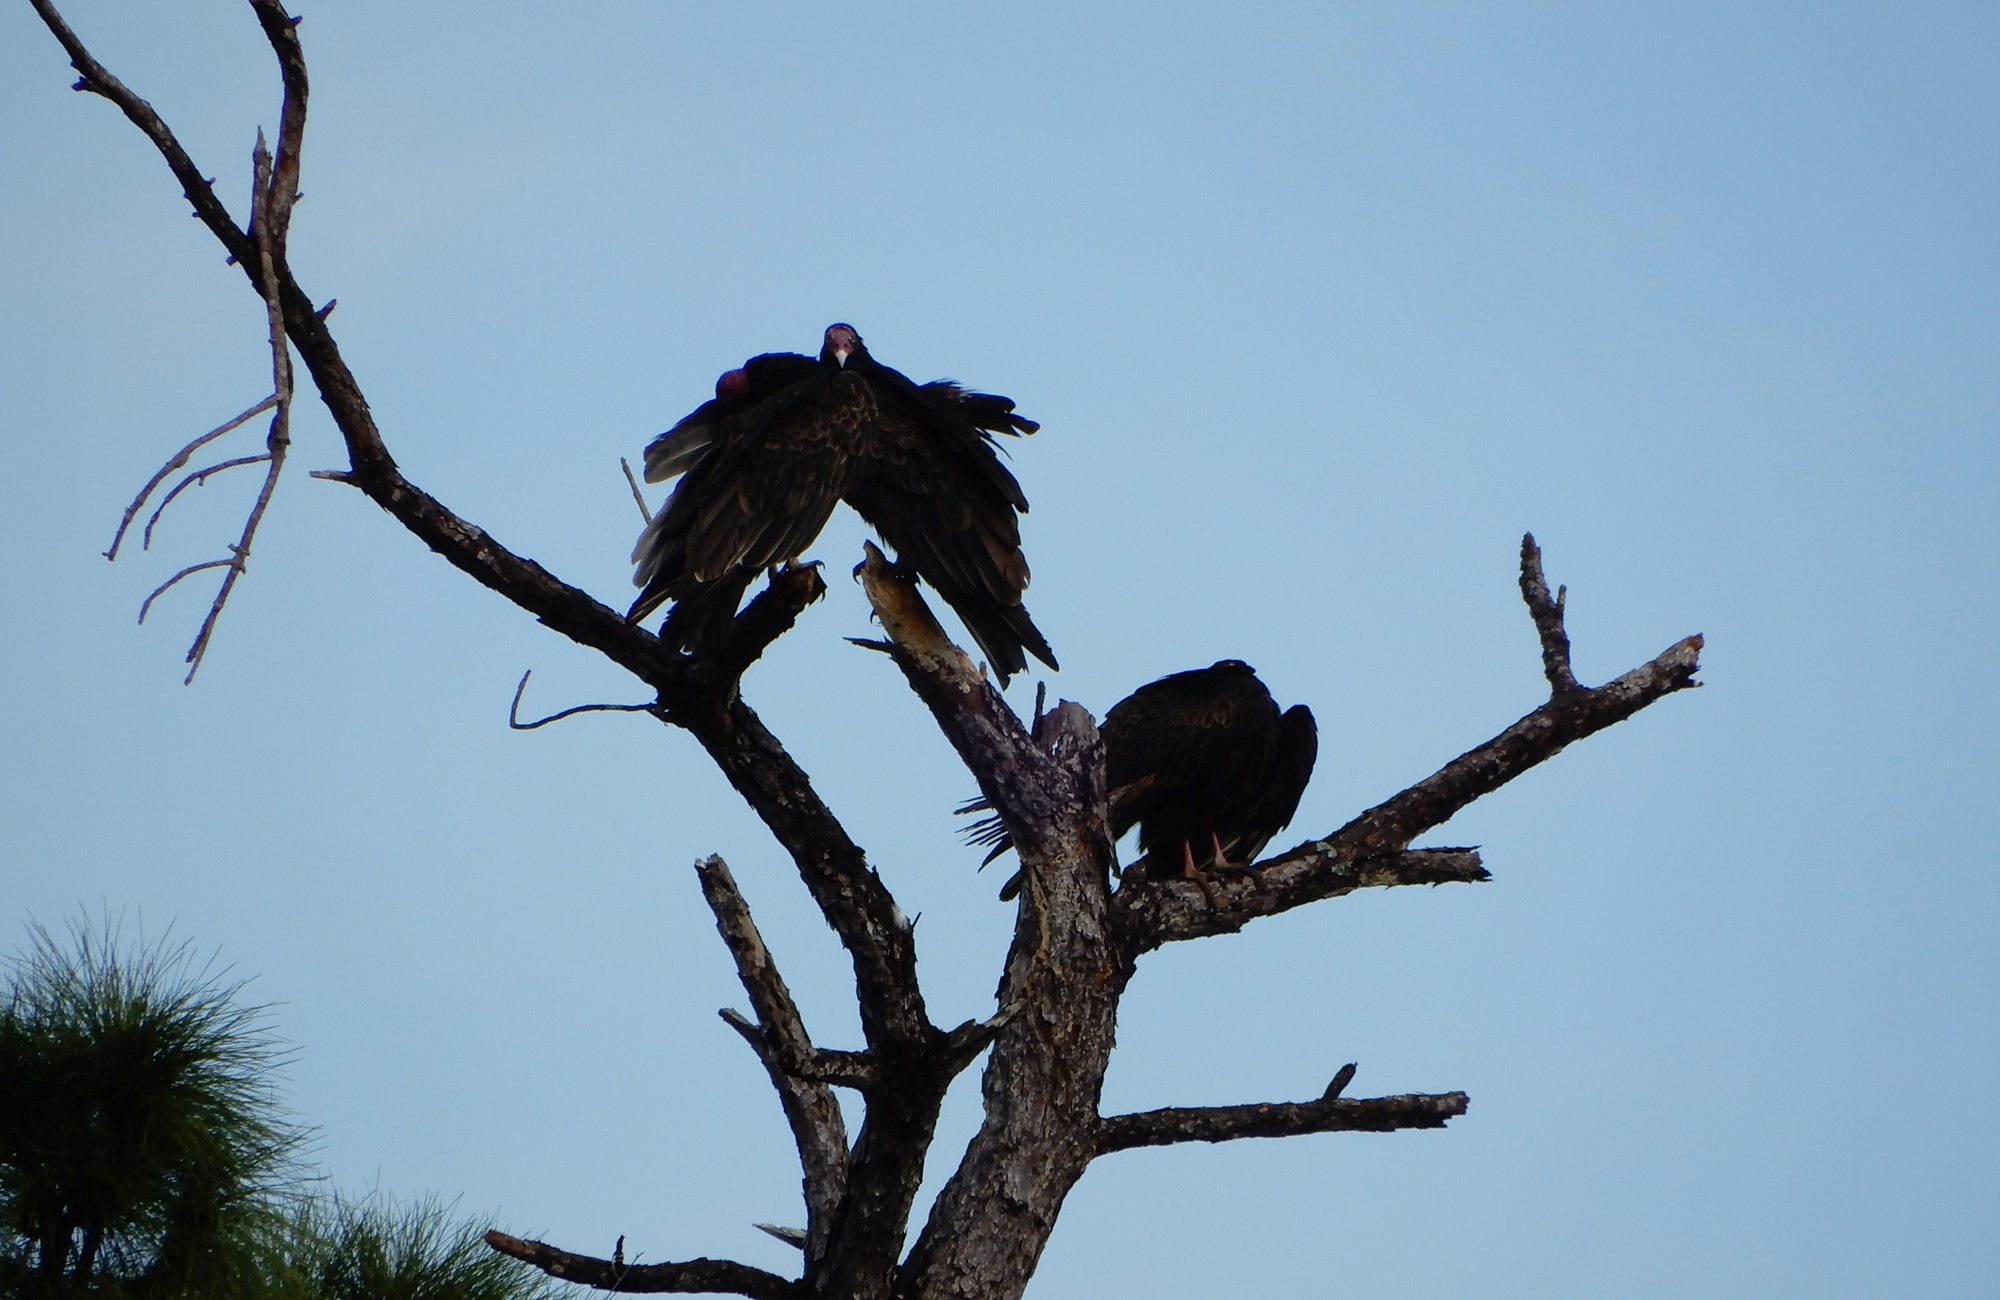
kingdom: Animalia
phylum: Chordata
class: Aves
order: Accipitriformes
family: Cathartidae
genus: Cathartes
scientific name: Cathartes aura
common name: Turkey vulture
